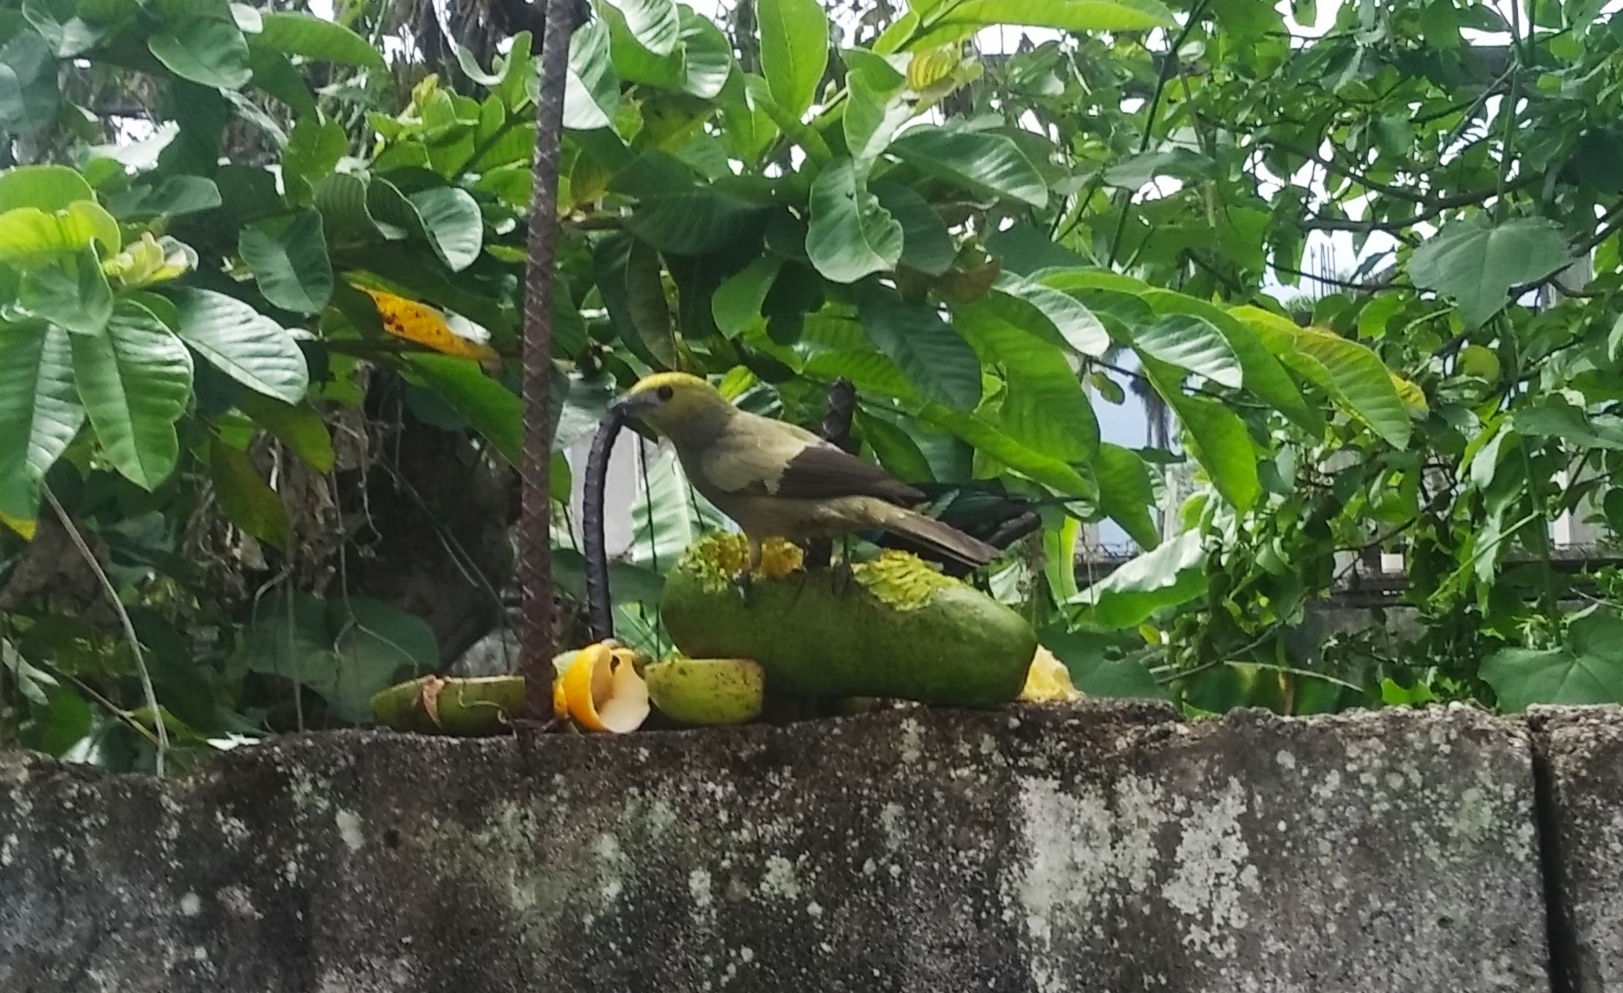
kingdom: Animalia
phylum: Chordata
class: Aves
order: Passeriformes
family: Thraupidae
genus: Thraupis
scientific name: Thraupis palmarum
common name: Palm tanager
